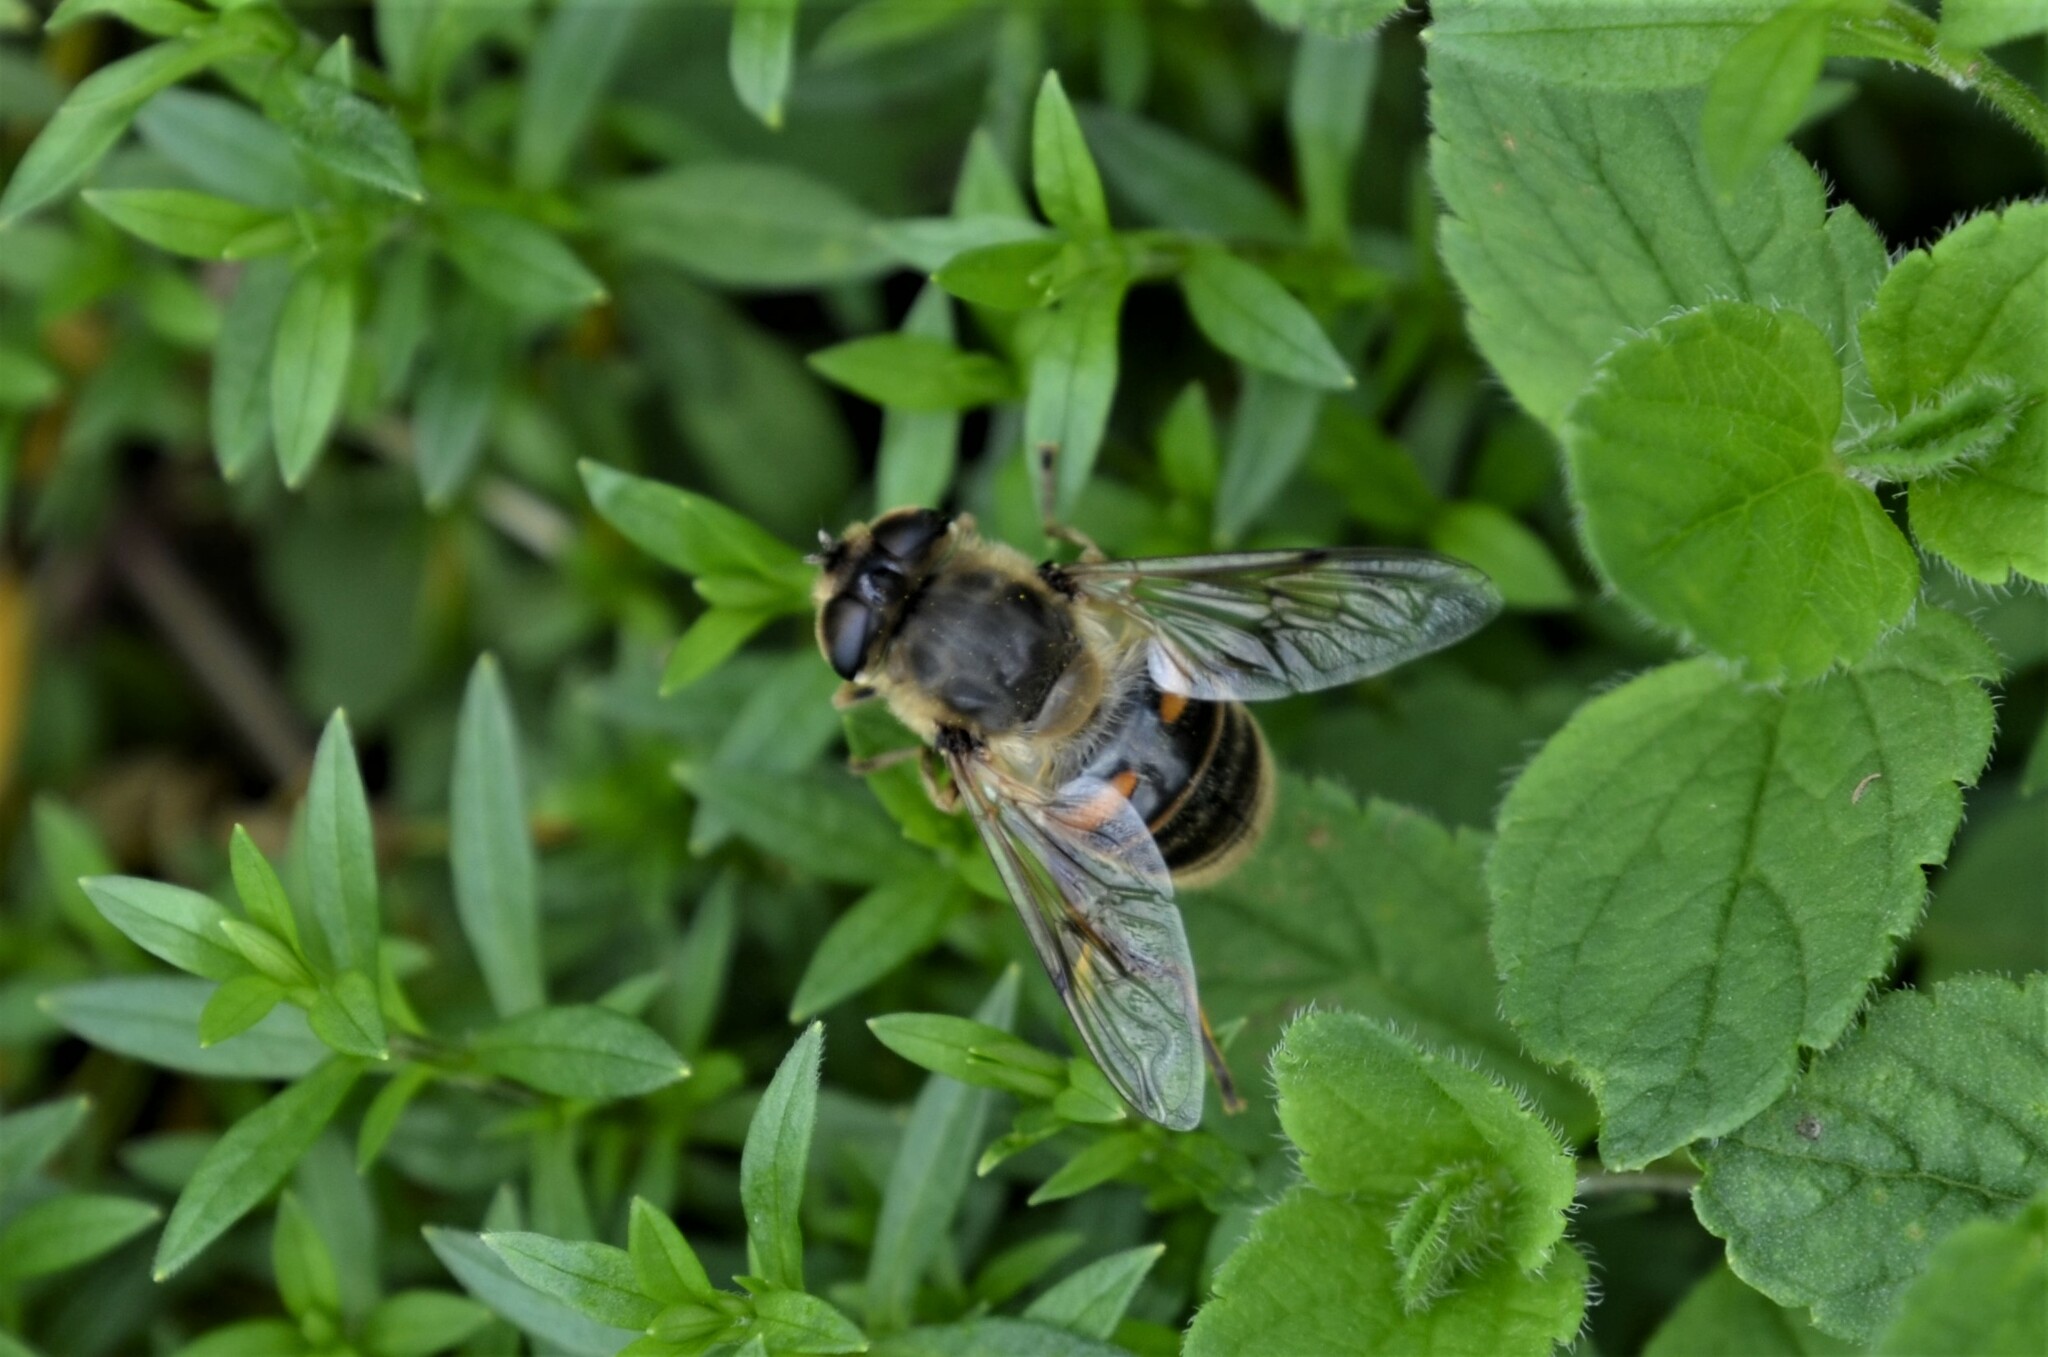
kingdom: Animalia
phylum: Arthropoda
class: Insecta
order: Diptera
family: Syrphidae
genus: Eristalis
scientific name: Eristalis tenax
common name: Drone fly
